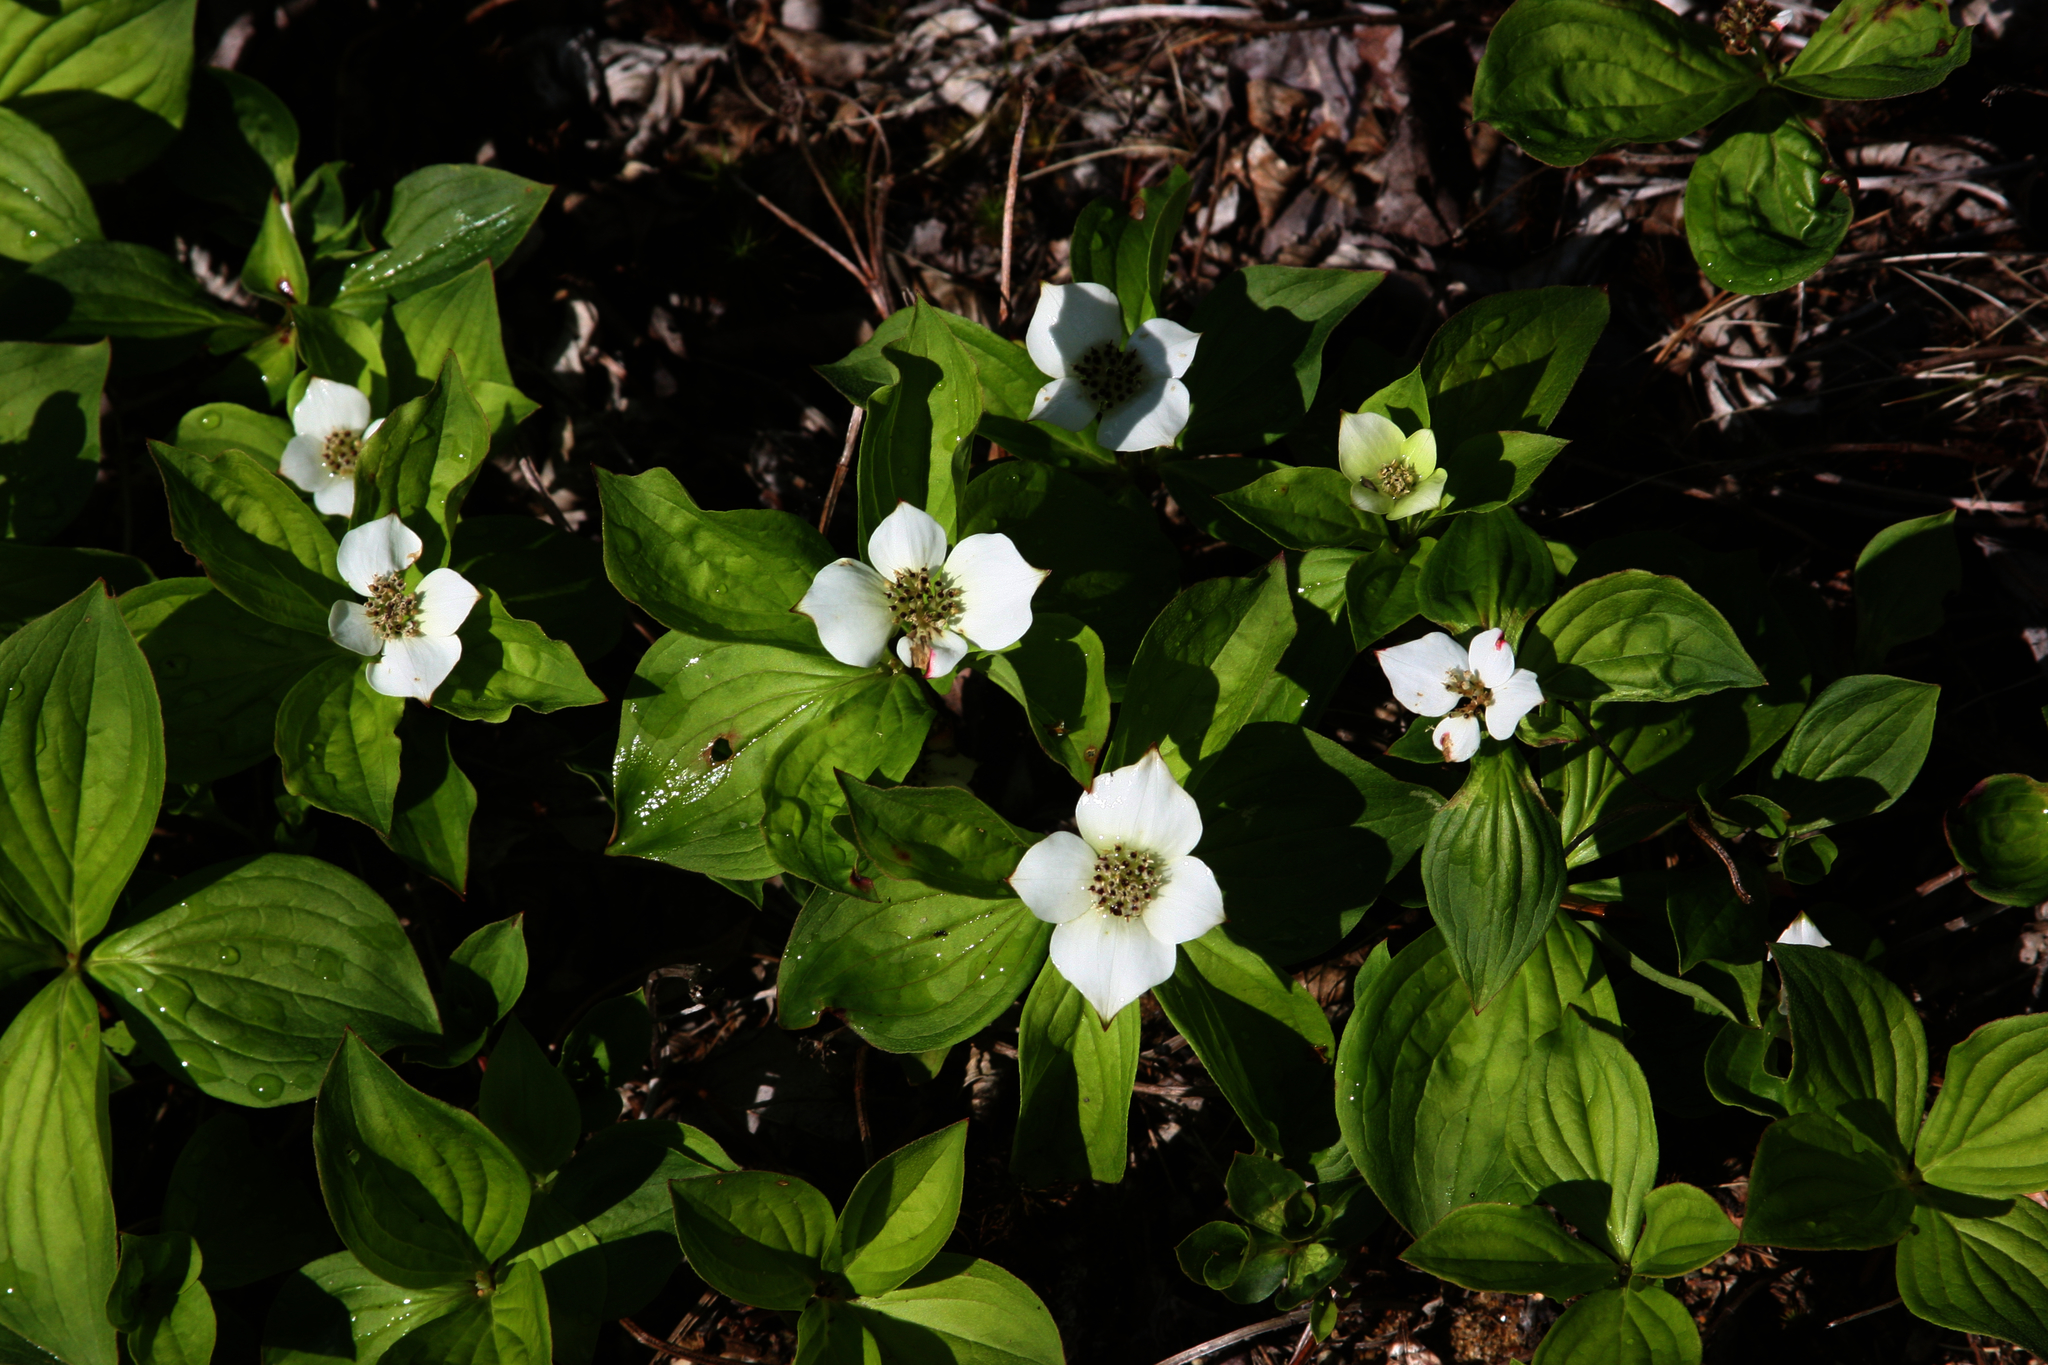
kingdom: Plantae
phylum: Tracheophyta
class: Magnoliopsida
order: Cornales
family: Cornaceae
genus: Cornus
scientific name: Cornus canadensis
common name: Creeping dogwood
